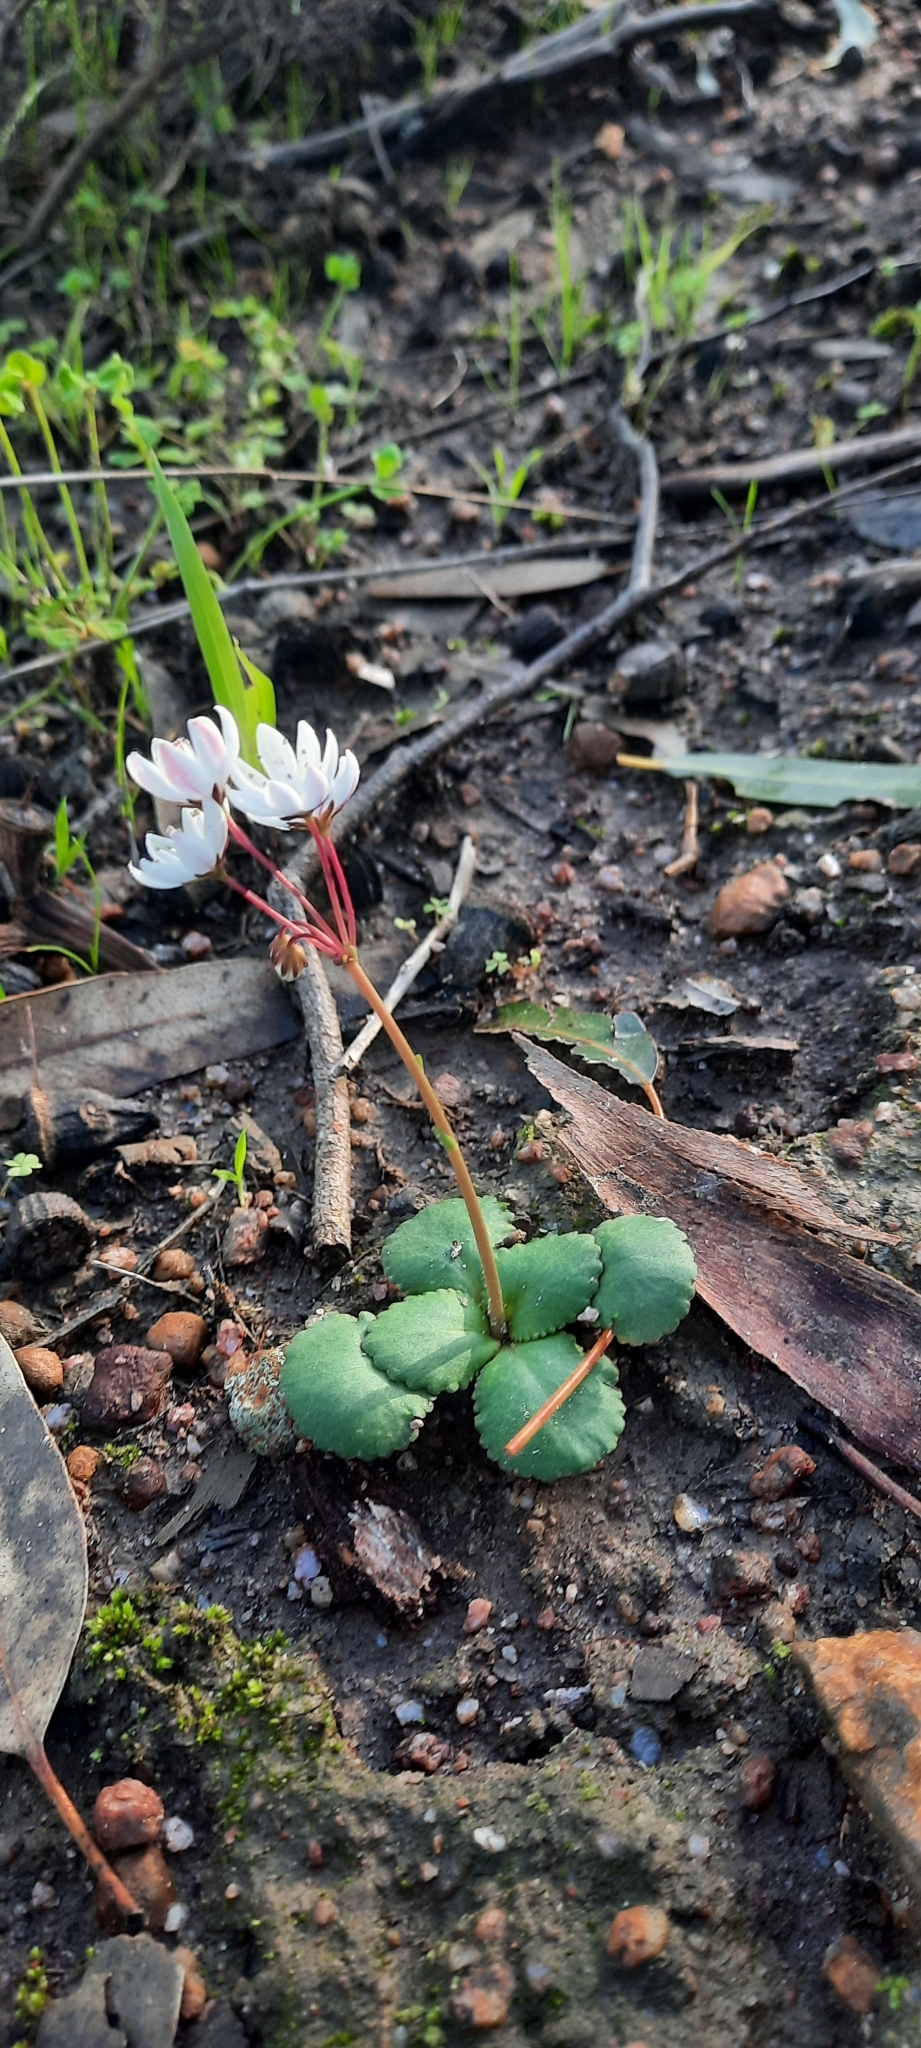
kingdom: Plantae
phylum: Tracheophyta
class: Magnoliopsida
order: Saxifragales
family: Crassulaceae
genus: Crassula
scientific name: Crassula capensis
